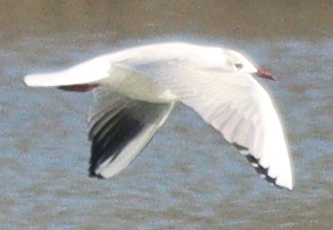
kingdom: Animalia
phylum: Chordata
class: Aves
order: Charadriiformes
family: Laridae
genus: Chroicocephalus
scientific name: Chroicocephalus ridibundus
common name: Black-headed gull
